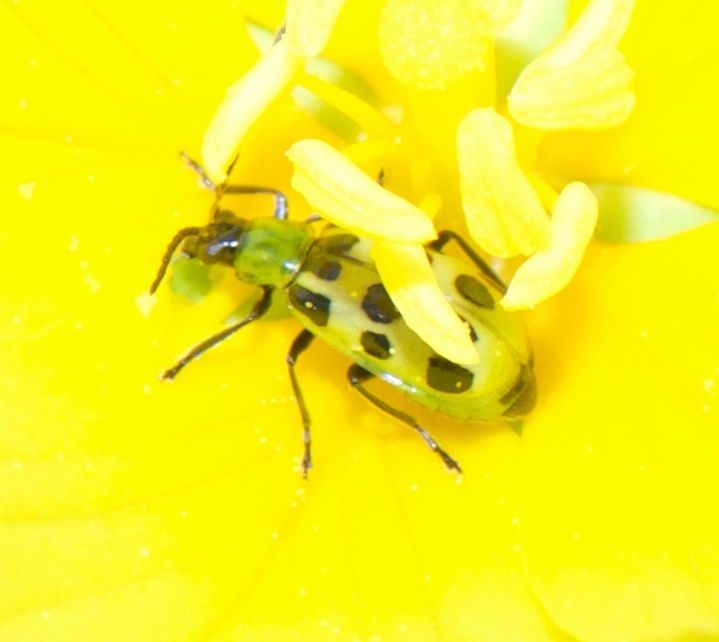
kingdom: Animalia
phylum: Arthropoda
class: Insecta
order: Coleoptera
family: Chrysomelidae
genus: Diabrotica
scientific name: Diabrotica undecimpunctata
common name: Spotted cucumber beetle
